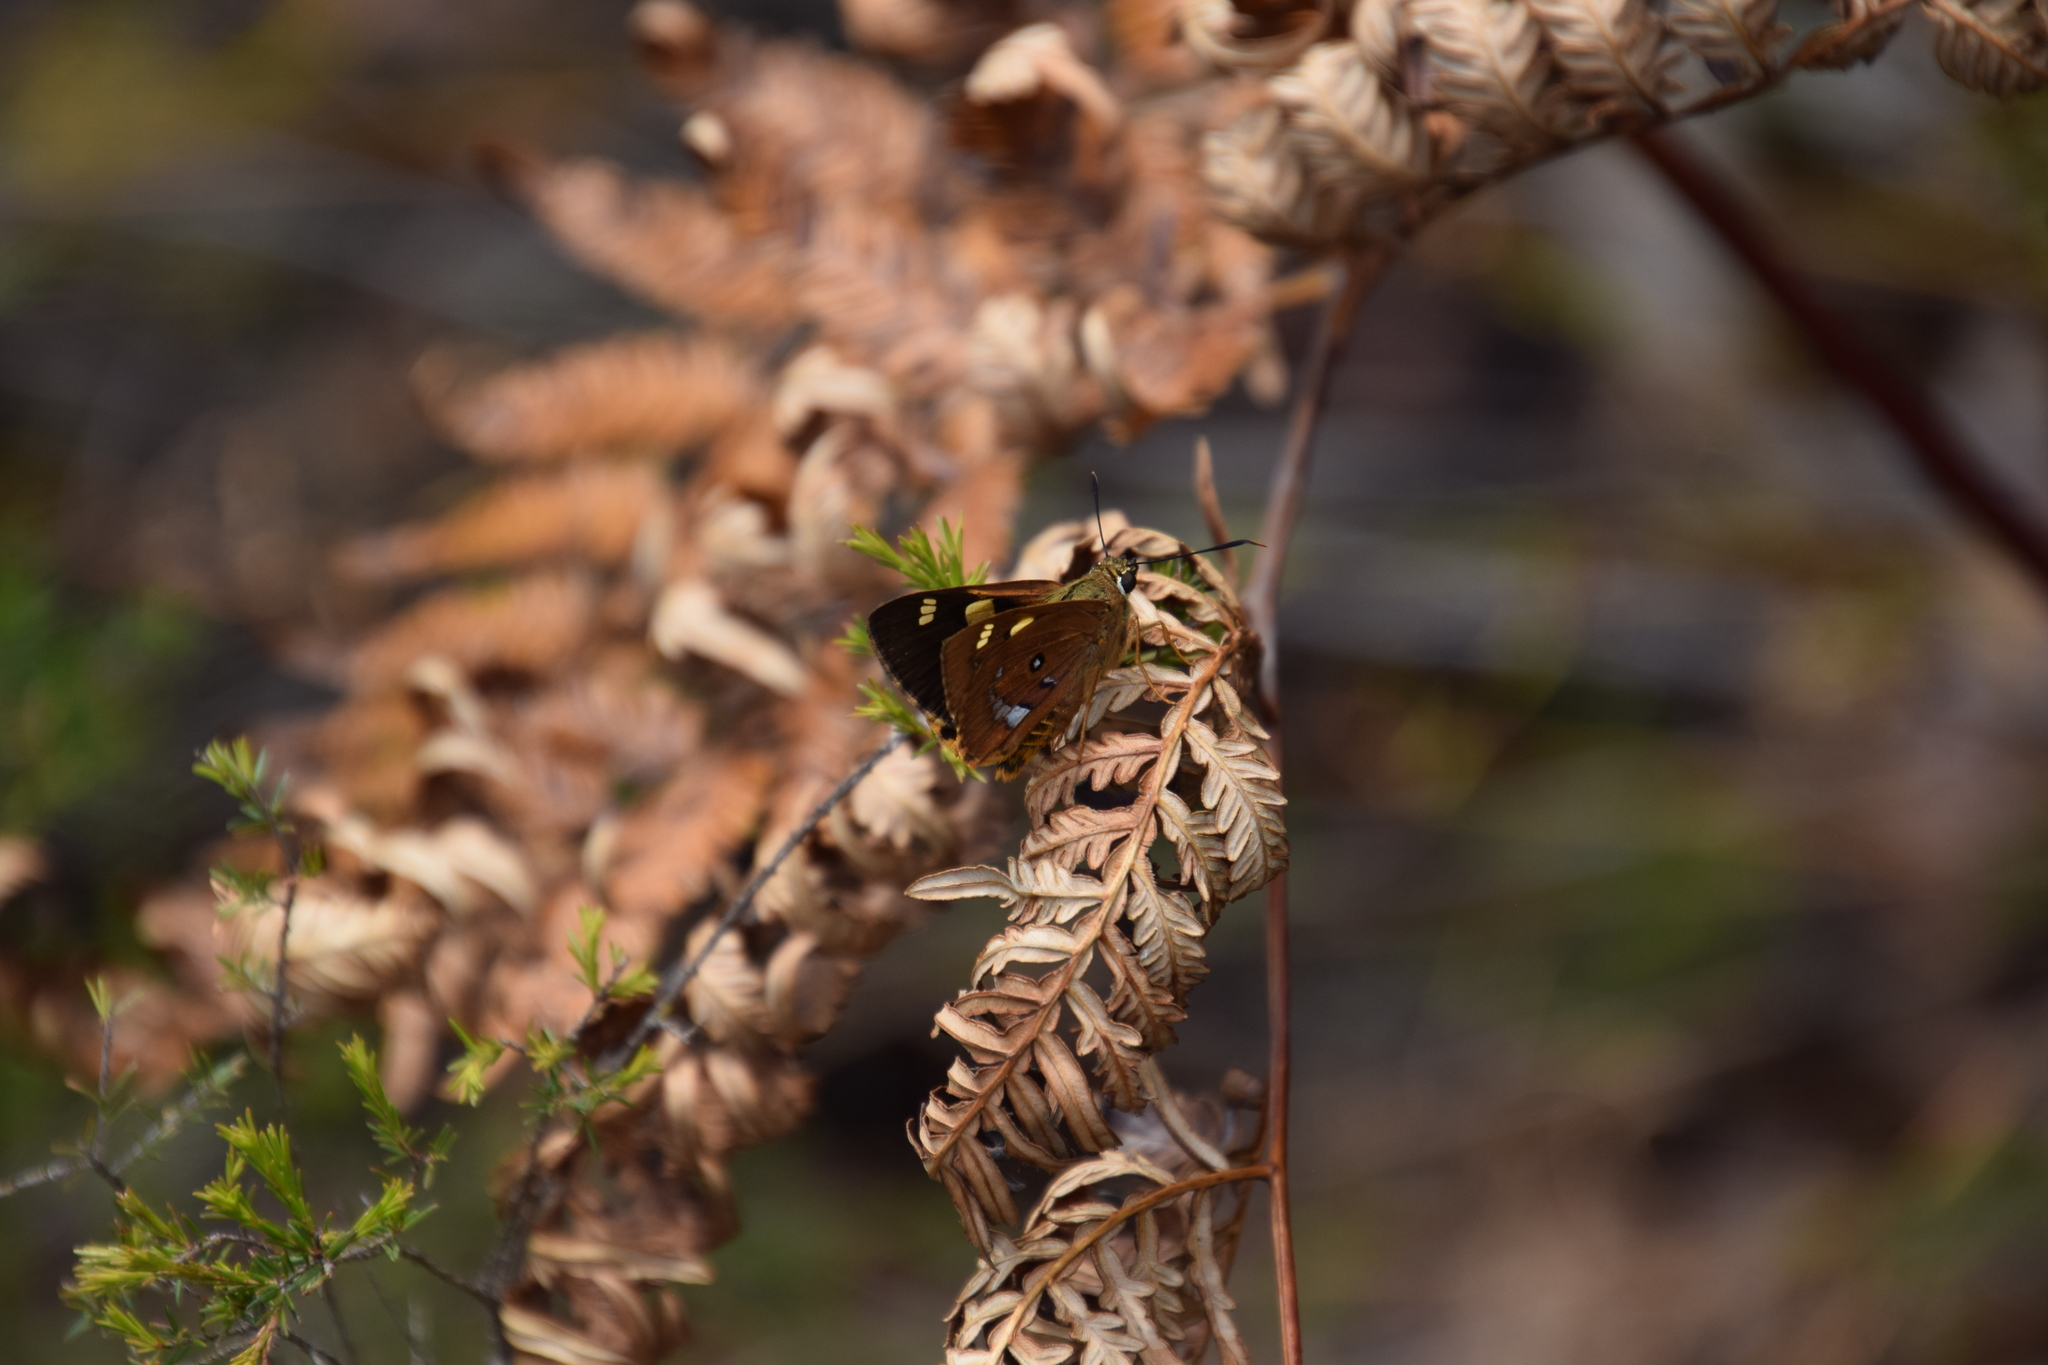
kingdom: Animalia
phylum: Arthropoda
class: Insecta
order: Lepidoptera
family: Hesperiidae
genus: Trapezites
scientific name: Trapezites symmomus
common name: Splendid ochre
